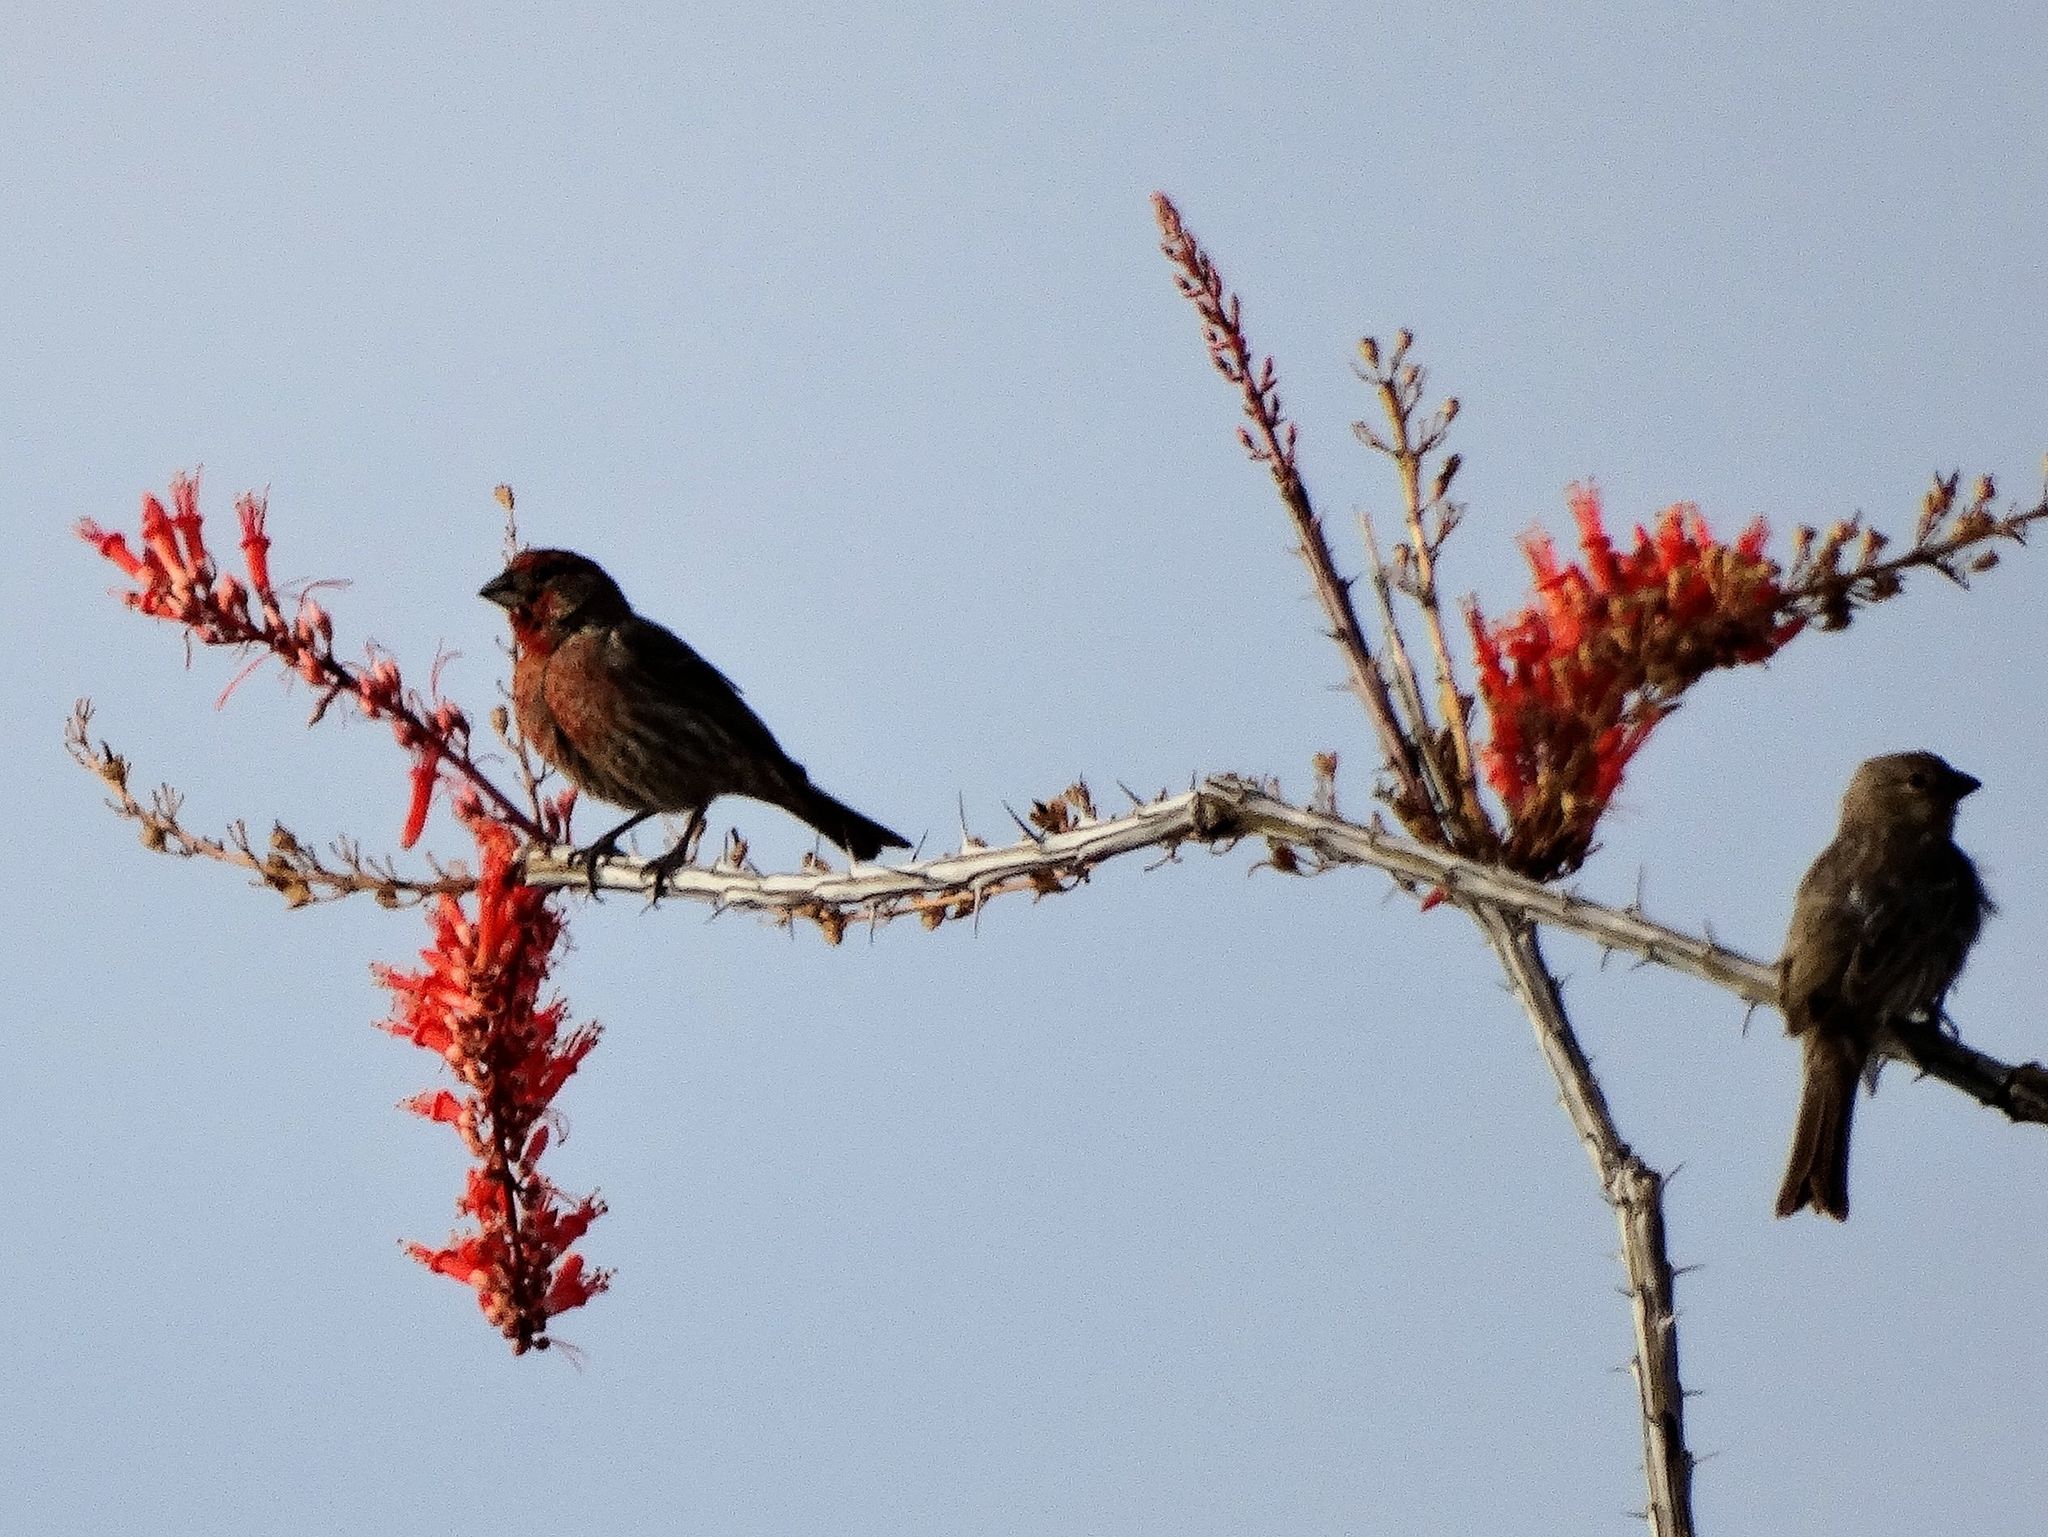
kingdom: Animalia
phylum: Chordata
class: Aves
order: Passeriformes
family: Fringillidae
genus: Haemorhous
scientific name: Haemorhous mexicanus
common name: House finch
